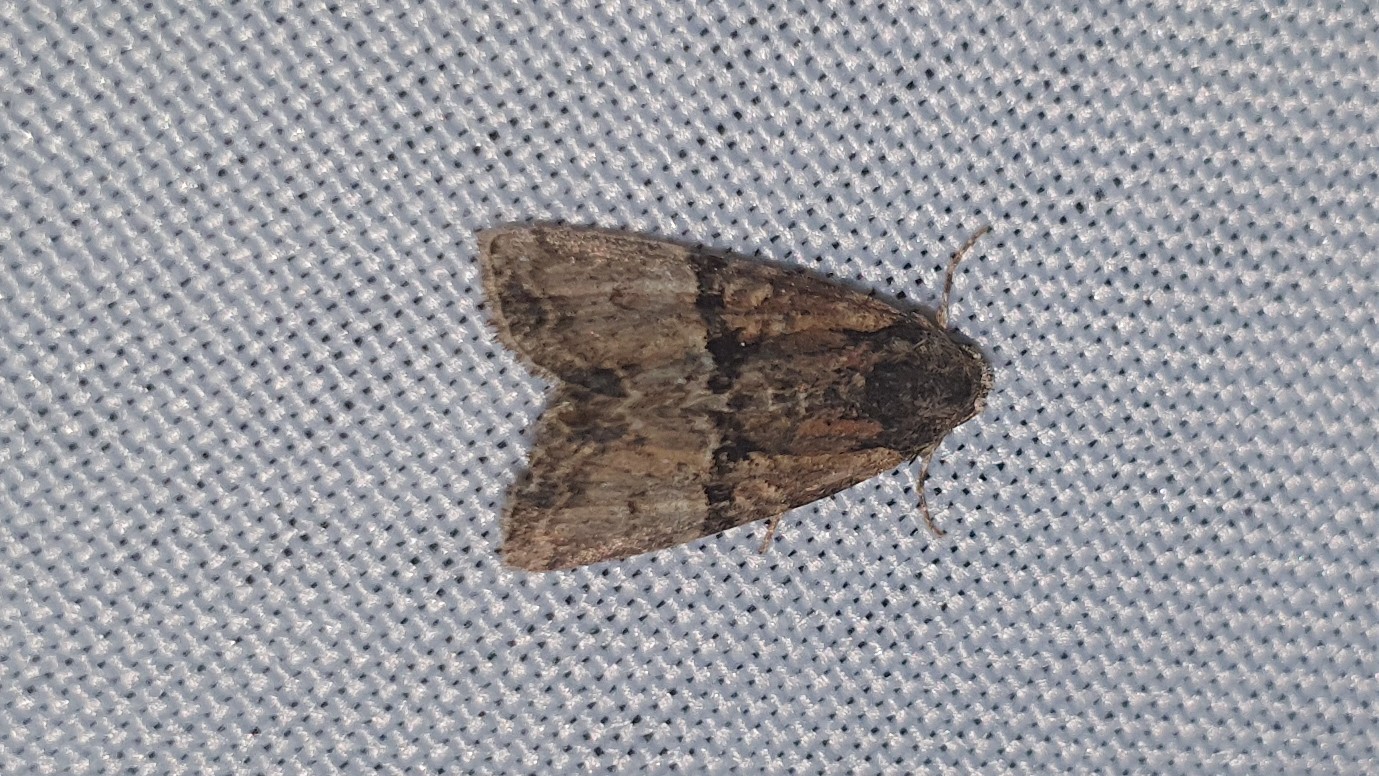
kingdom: Animalia
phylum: Arthropoda
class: Insecta
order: Lepidoptera
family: Noctuidae
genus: Mesoligia
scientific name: Mesoligia furuncula
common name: Cloaked minor
